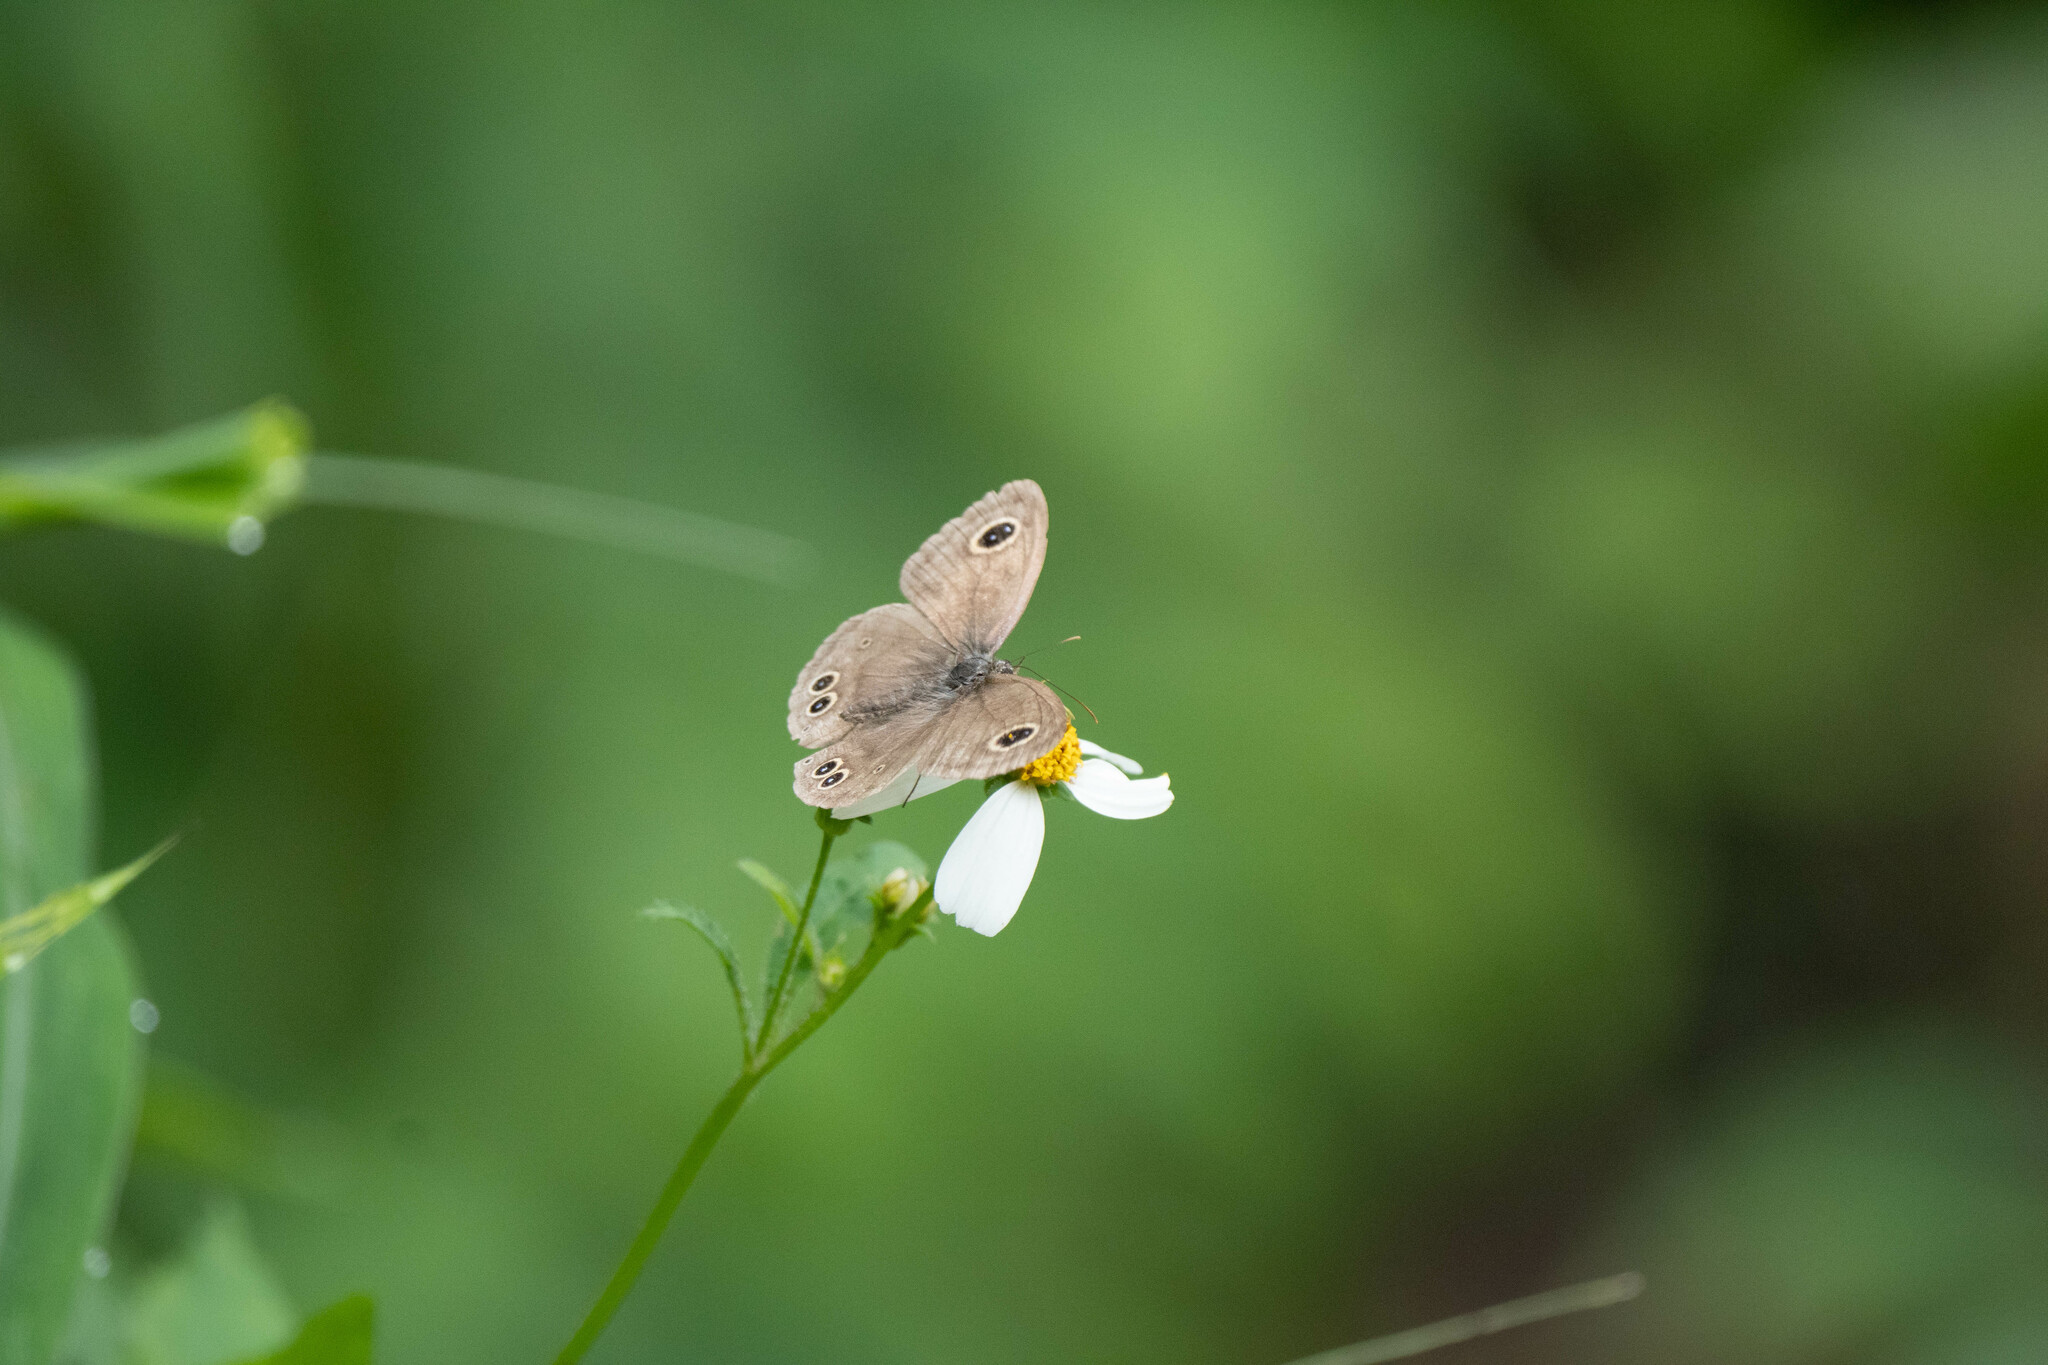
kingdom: Animalia
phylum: Arthropoda
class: Insecta
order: Lepidoptera
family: Nymphalidae
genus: Ypthima
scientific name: Ypthima baldus
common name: Common five-ring
